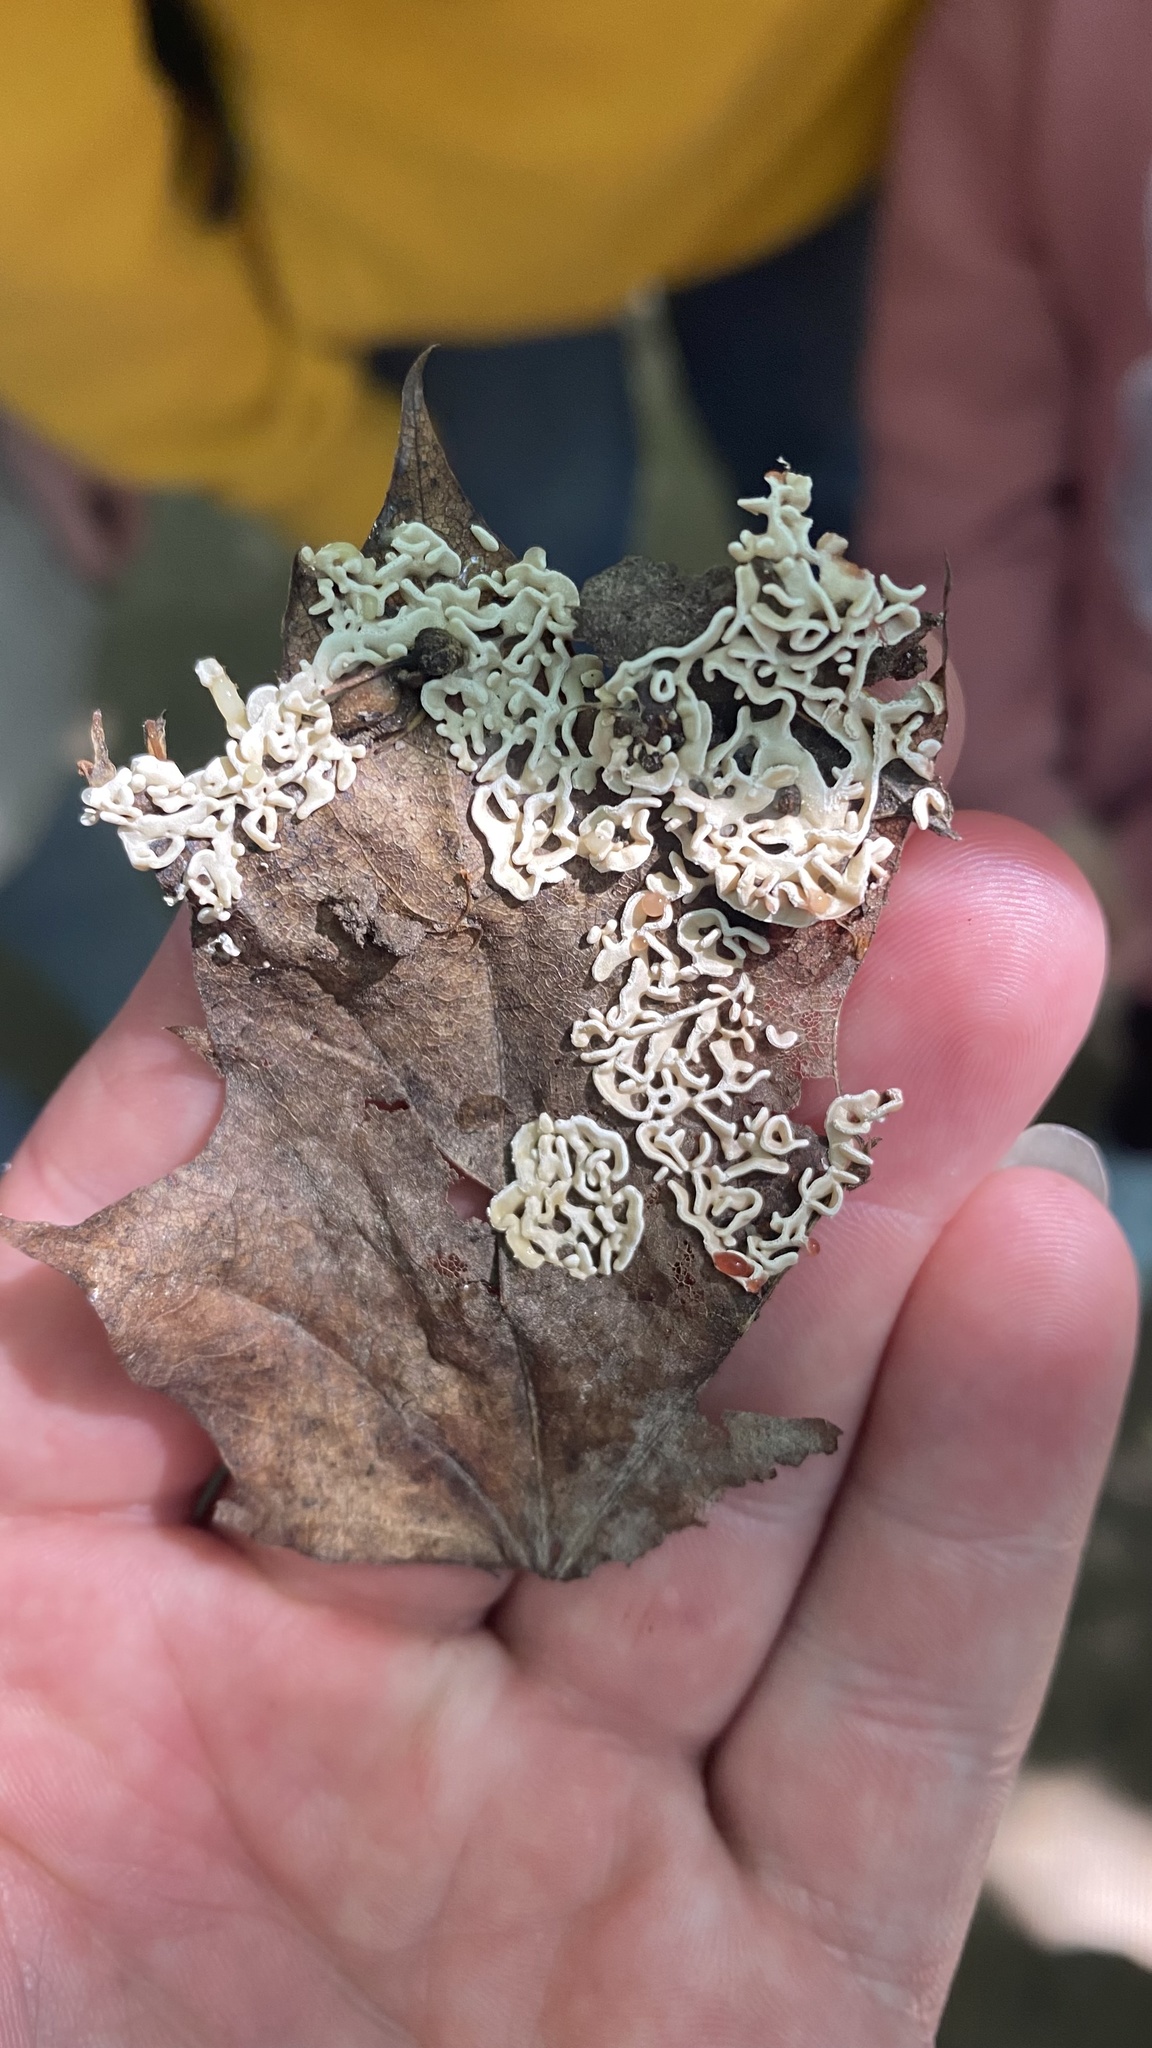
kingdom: Protozoa
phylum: Mycetozoa
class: Myxomycetes
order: Physarales
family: Physaraceae
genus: Physarum
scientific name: Physarum bivalve
